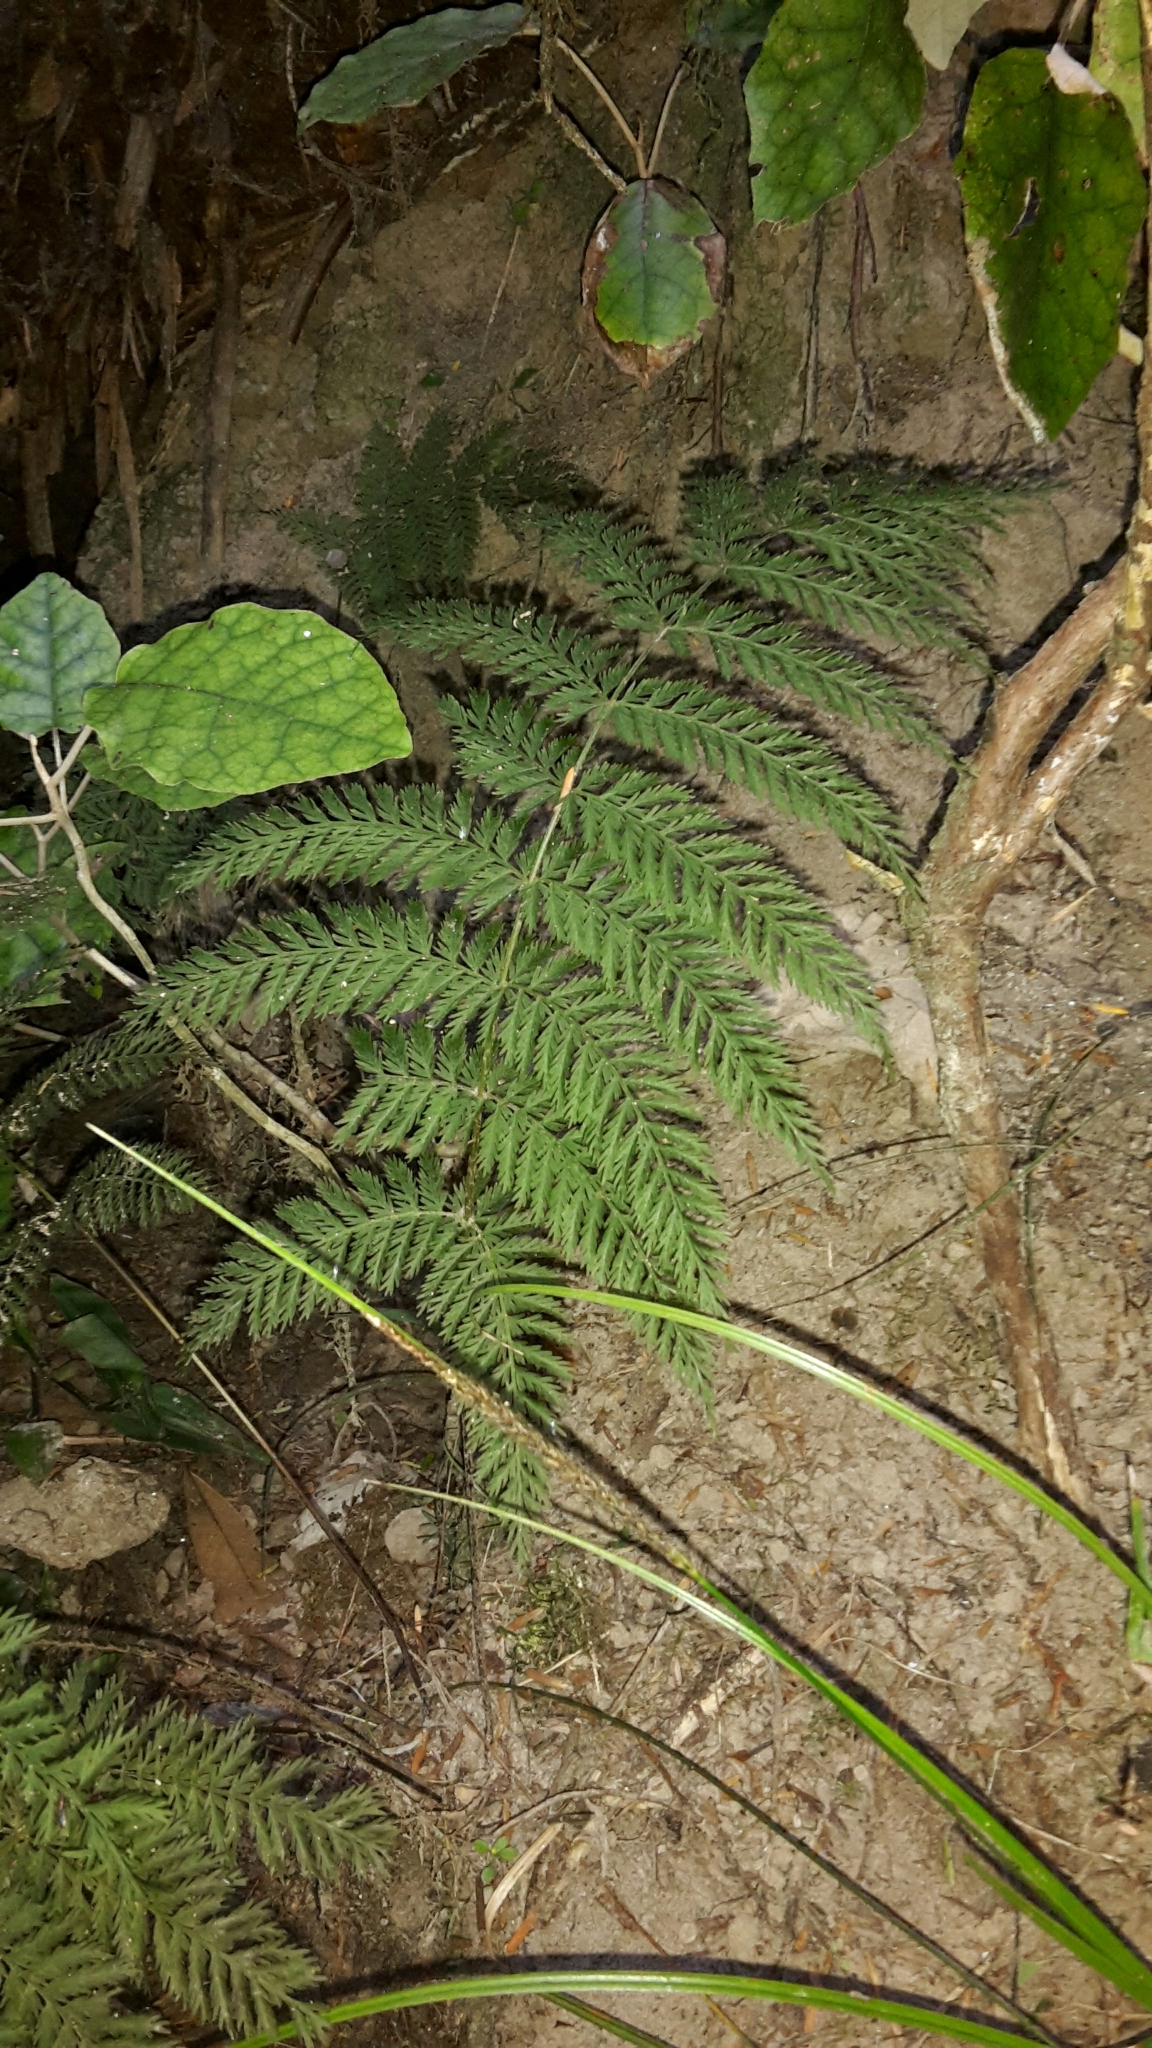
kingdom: Plantae
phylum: Tracheophyta
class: Polypodiopsida
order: Osmundales
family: Osmundaceae
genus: Leptopteris
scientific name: Leptopteris hymenophylloides
